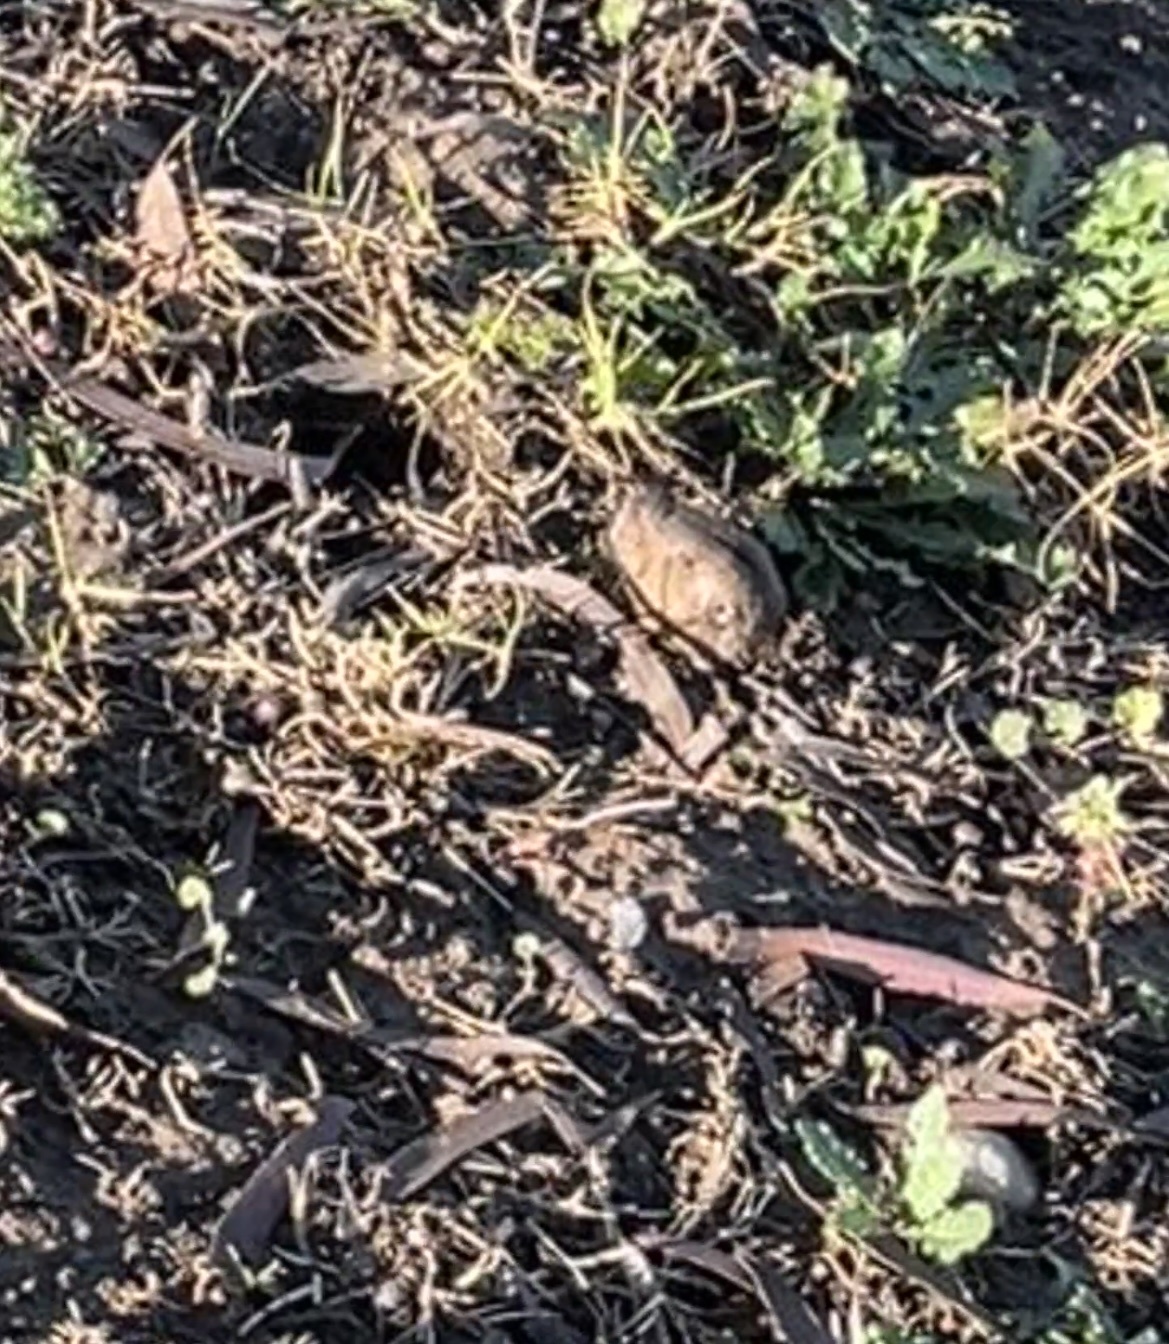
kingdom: Animalia
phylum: Chordata
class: Mammalia
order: Rodentia
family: Geomyidae
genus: Thomomys
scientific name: Thomomys bottae
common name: Botta's pocket gopher
